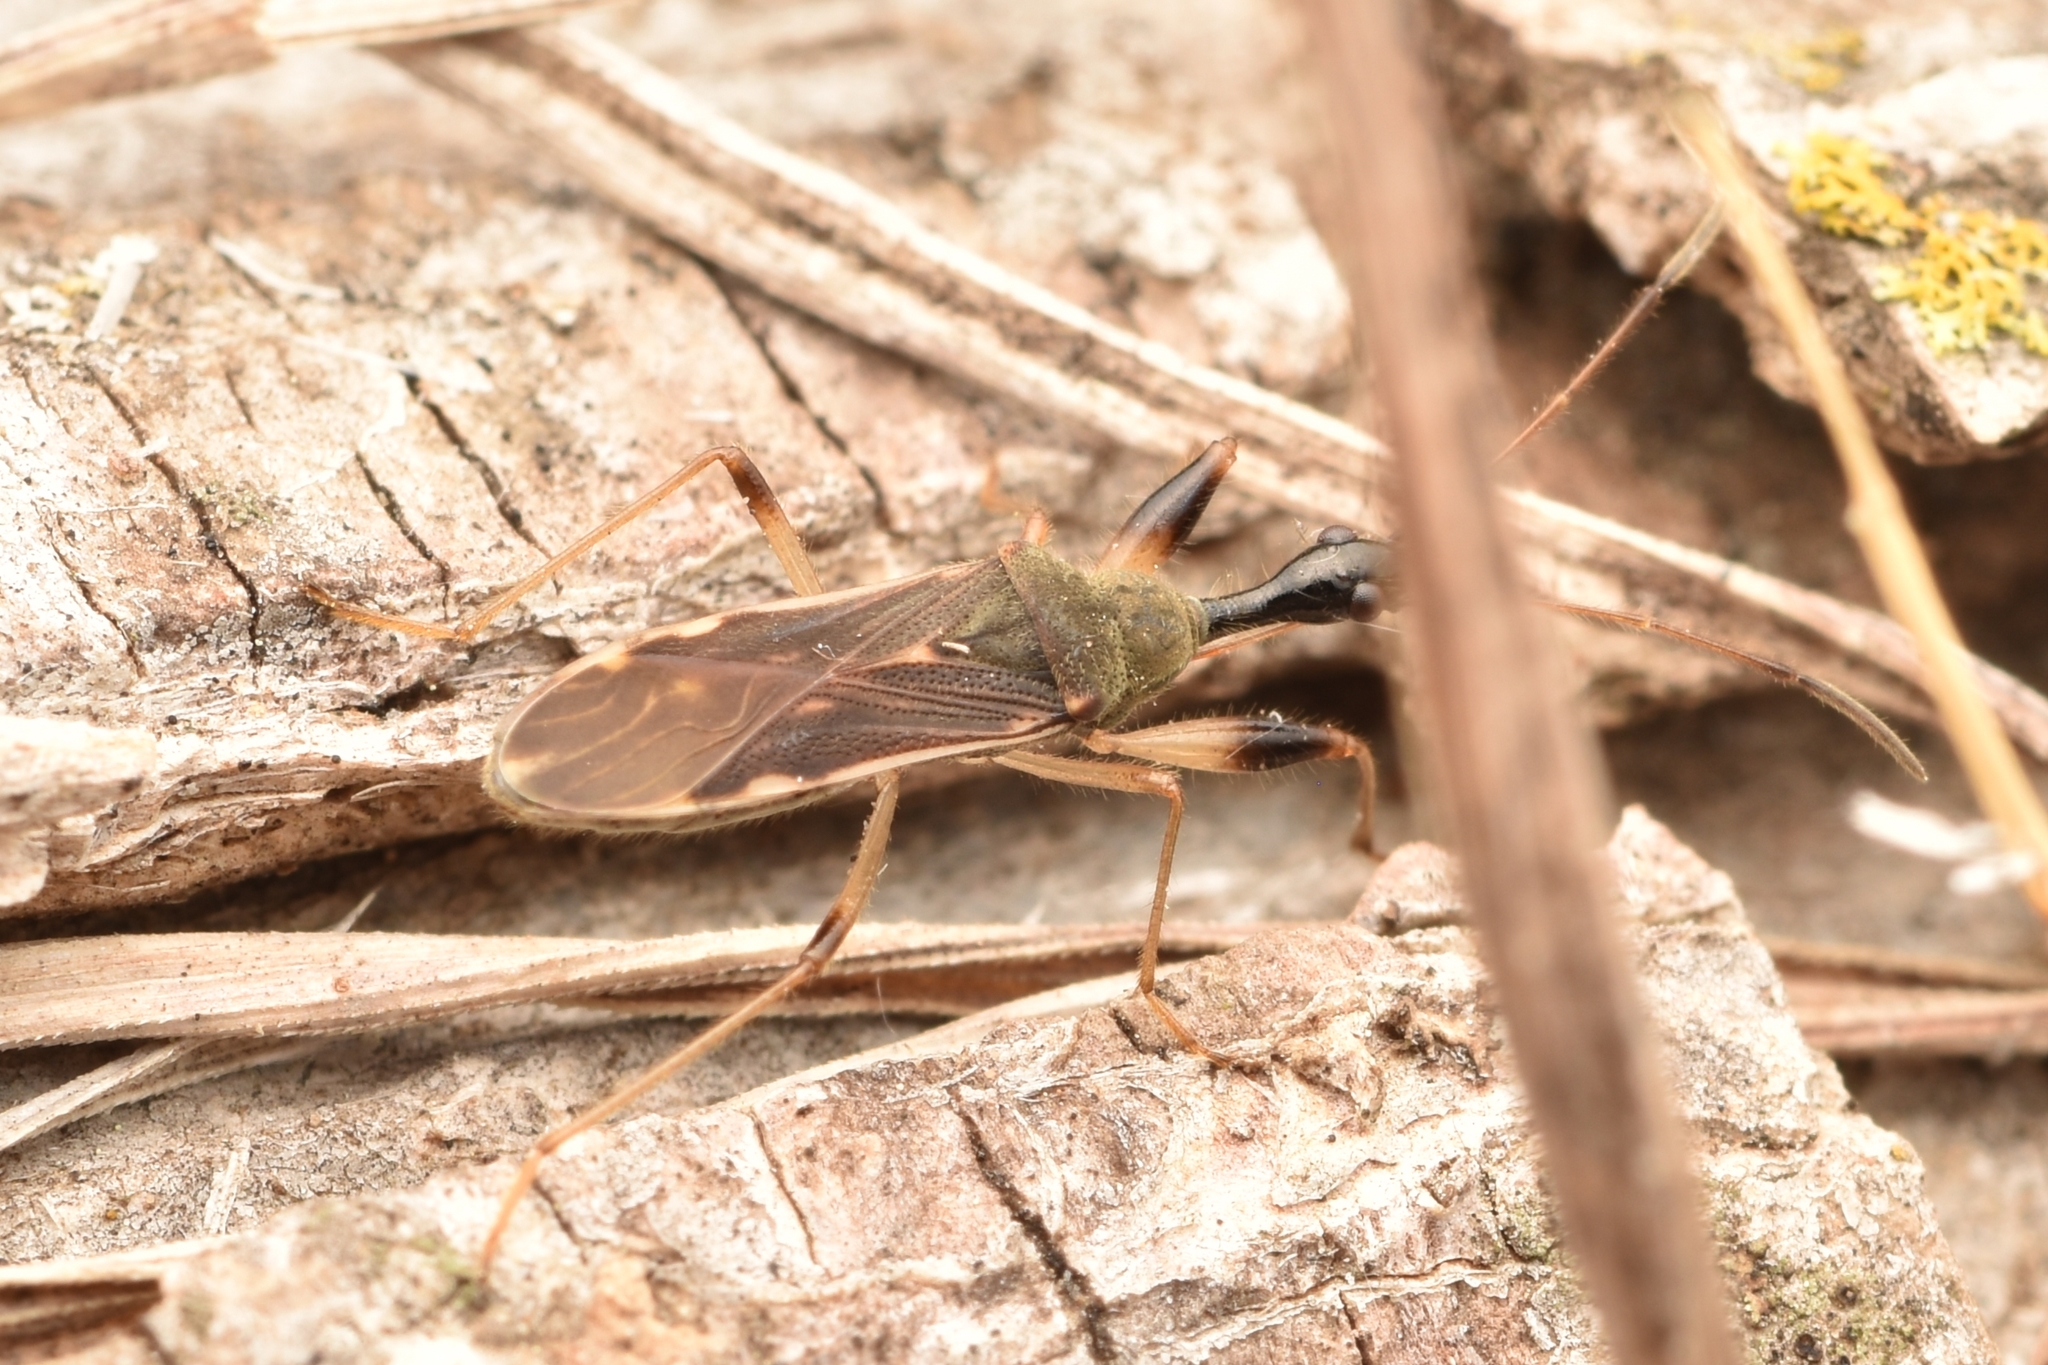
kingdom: Animalia
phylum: Arthropoda
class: Insecta
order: Hemiptera
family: Rhyparochromidae
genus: Myodocha
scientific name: Myodocha serripes
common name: Long-necked seed bug
